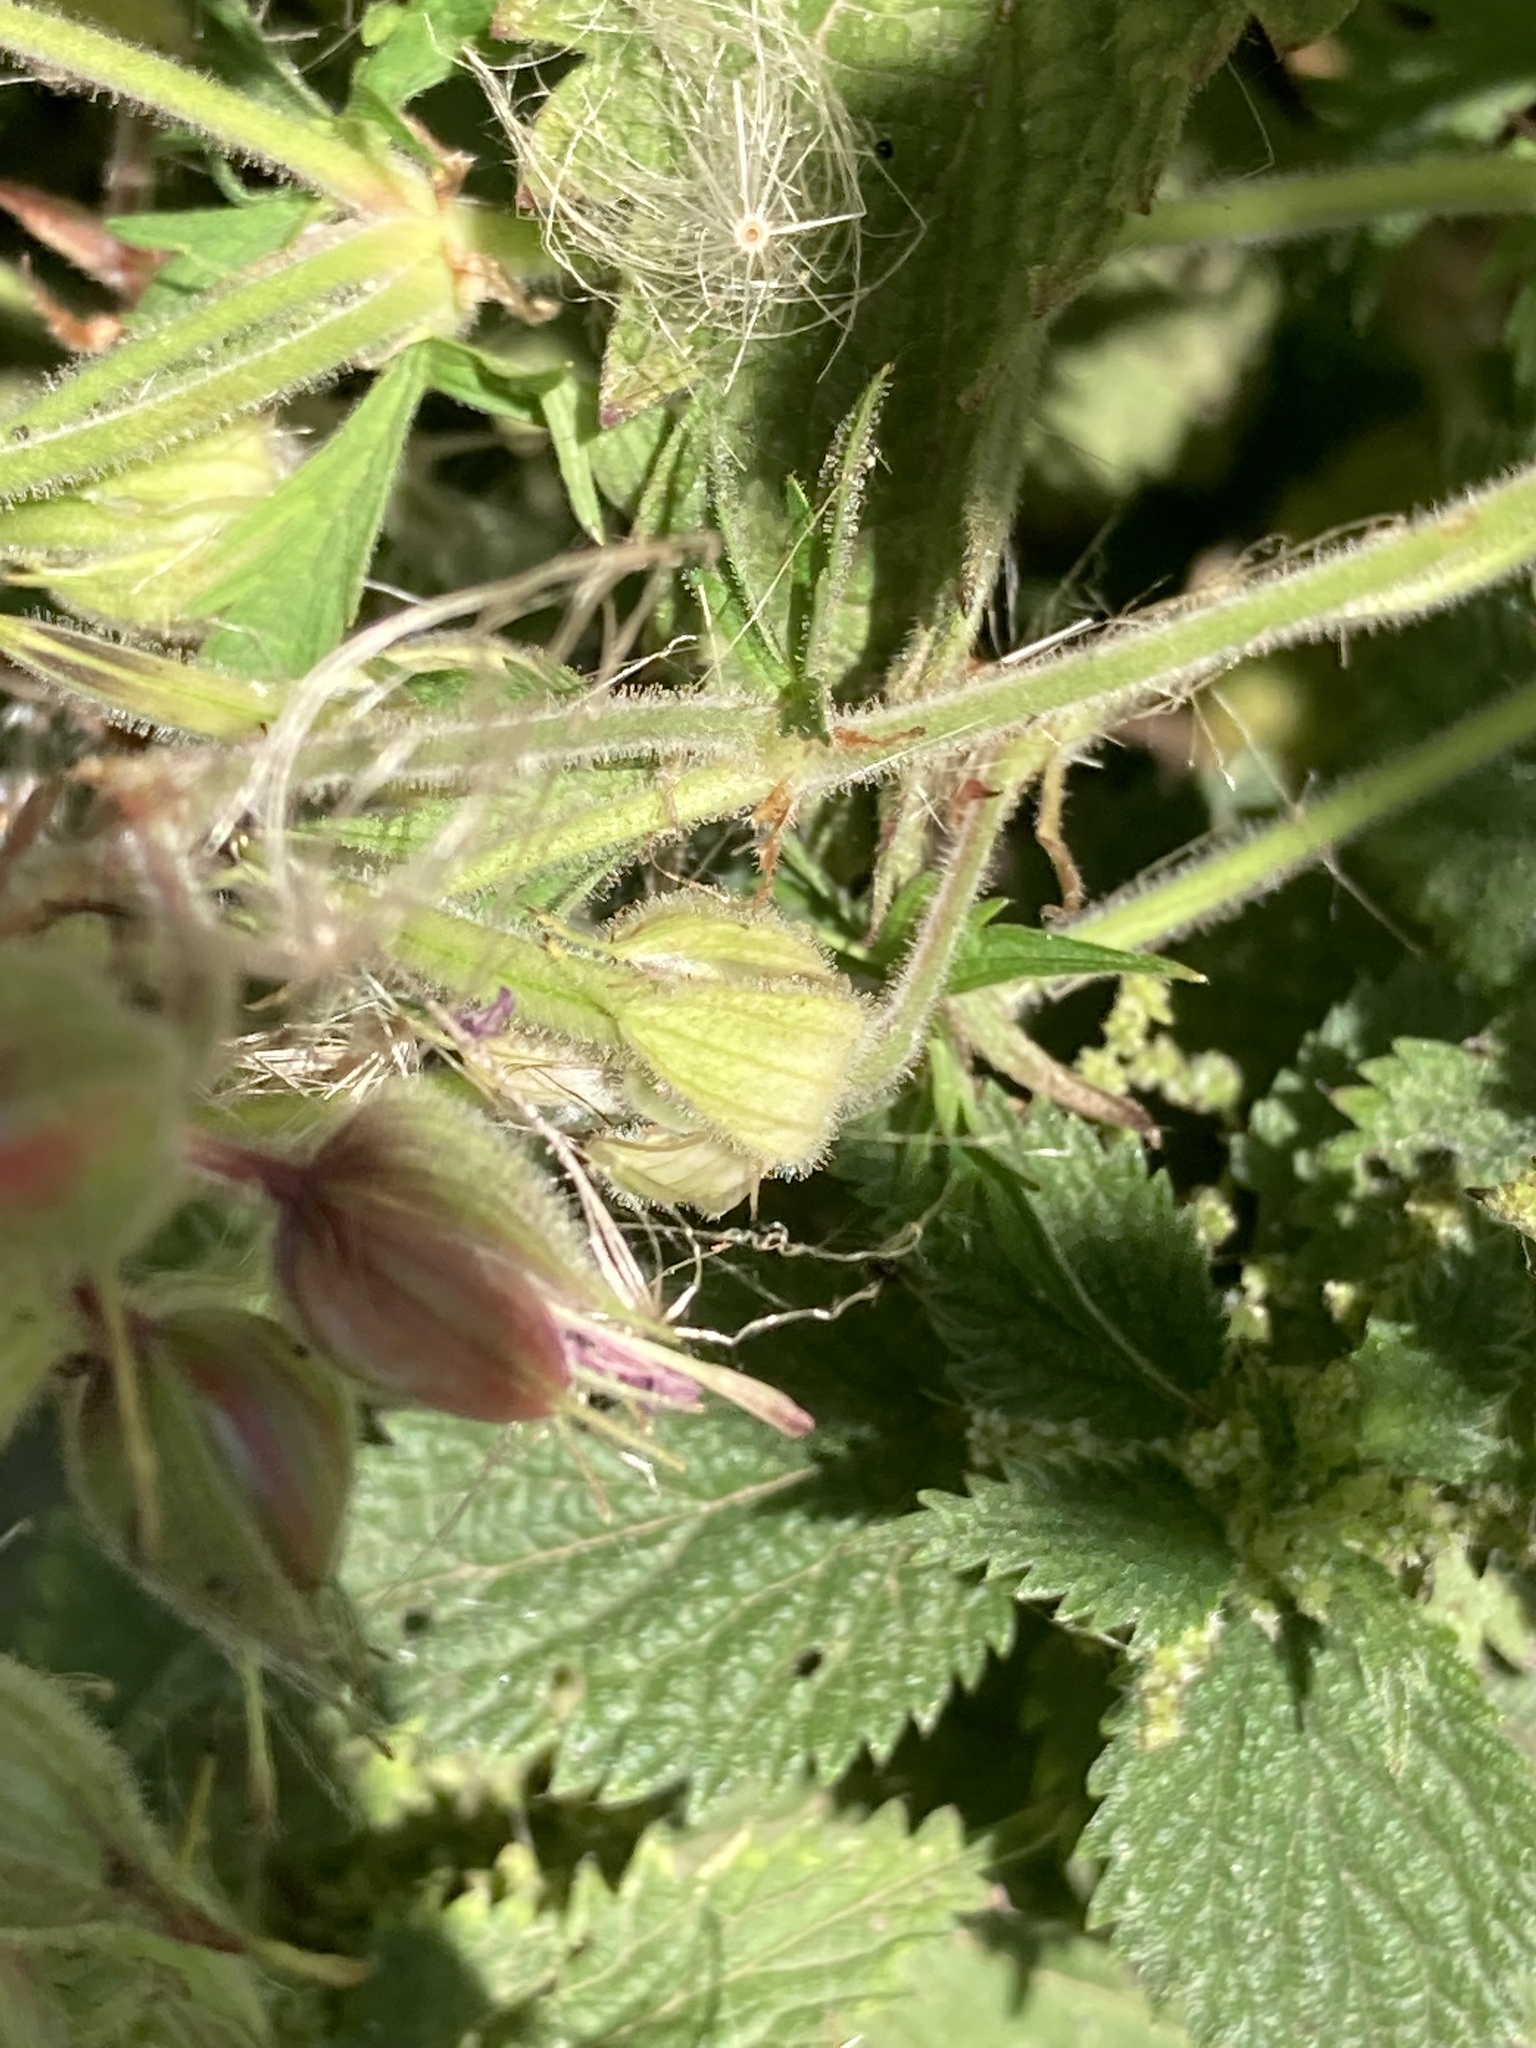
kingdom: Plantae
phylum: Tracheophyta
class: Magnoliopsida
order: Geraniales
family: Geraniaceae
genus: Geranium
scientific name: Geranium pratense
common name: Meadow crane's-bill
